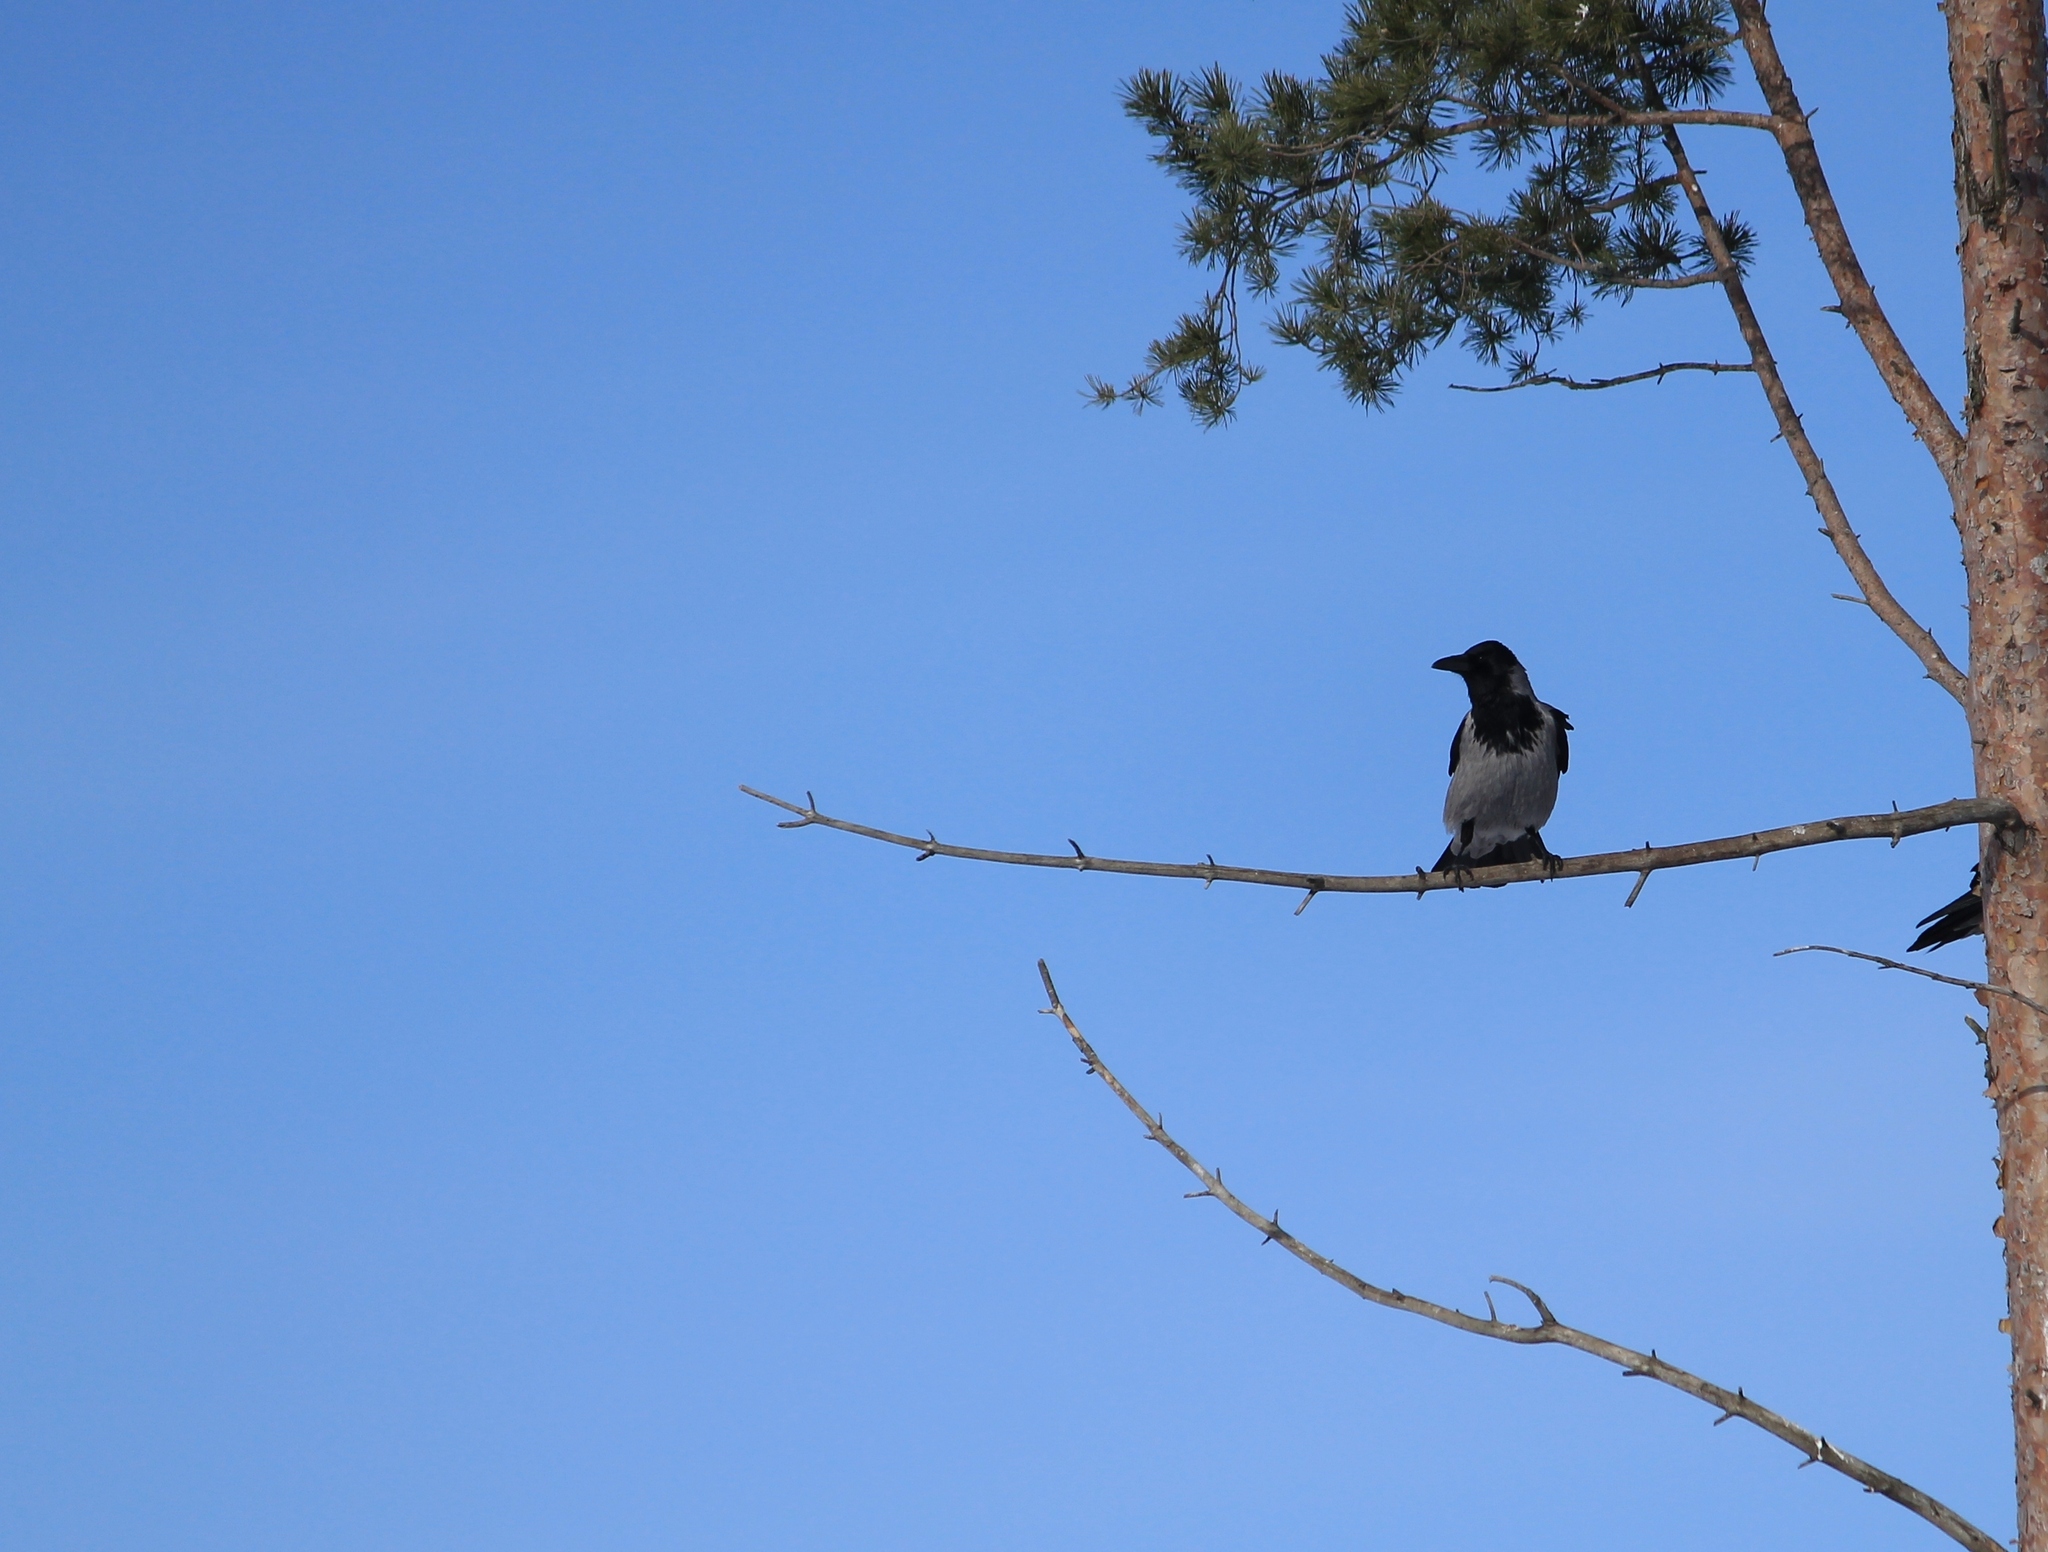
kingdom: Animalia
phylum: Chordata
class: Aves
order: Passeriformes
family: Corvidae
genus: Corvus
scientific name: Corvus cornix
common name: Hooded crow
